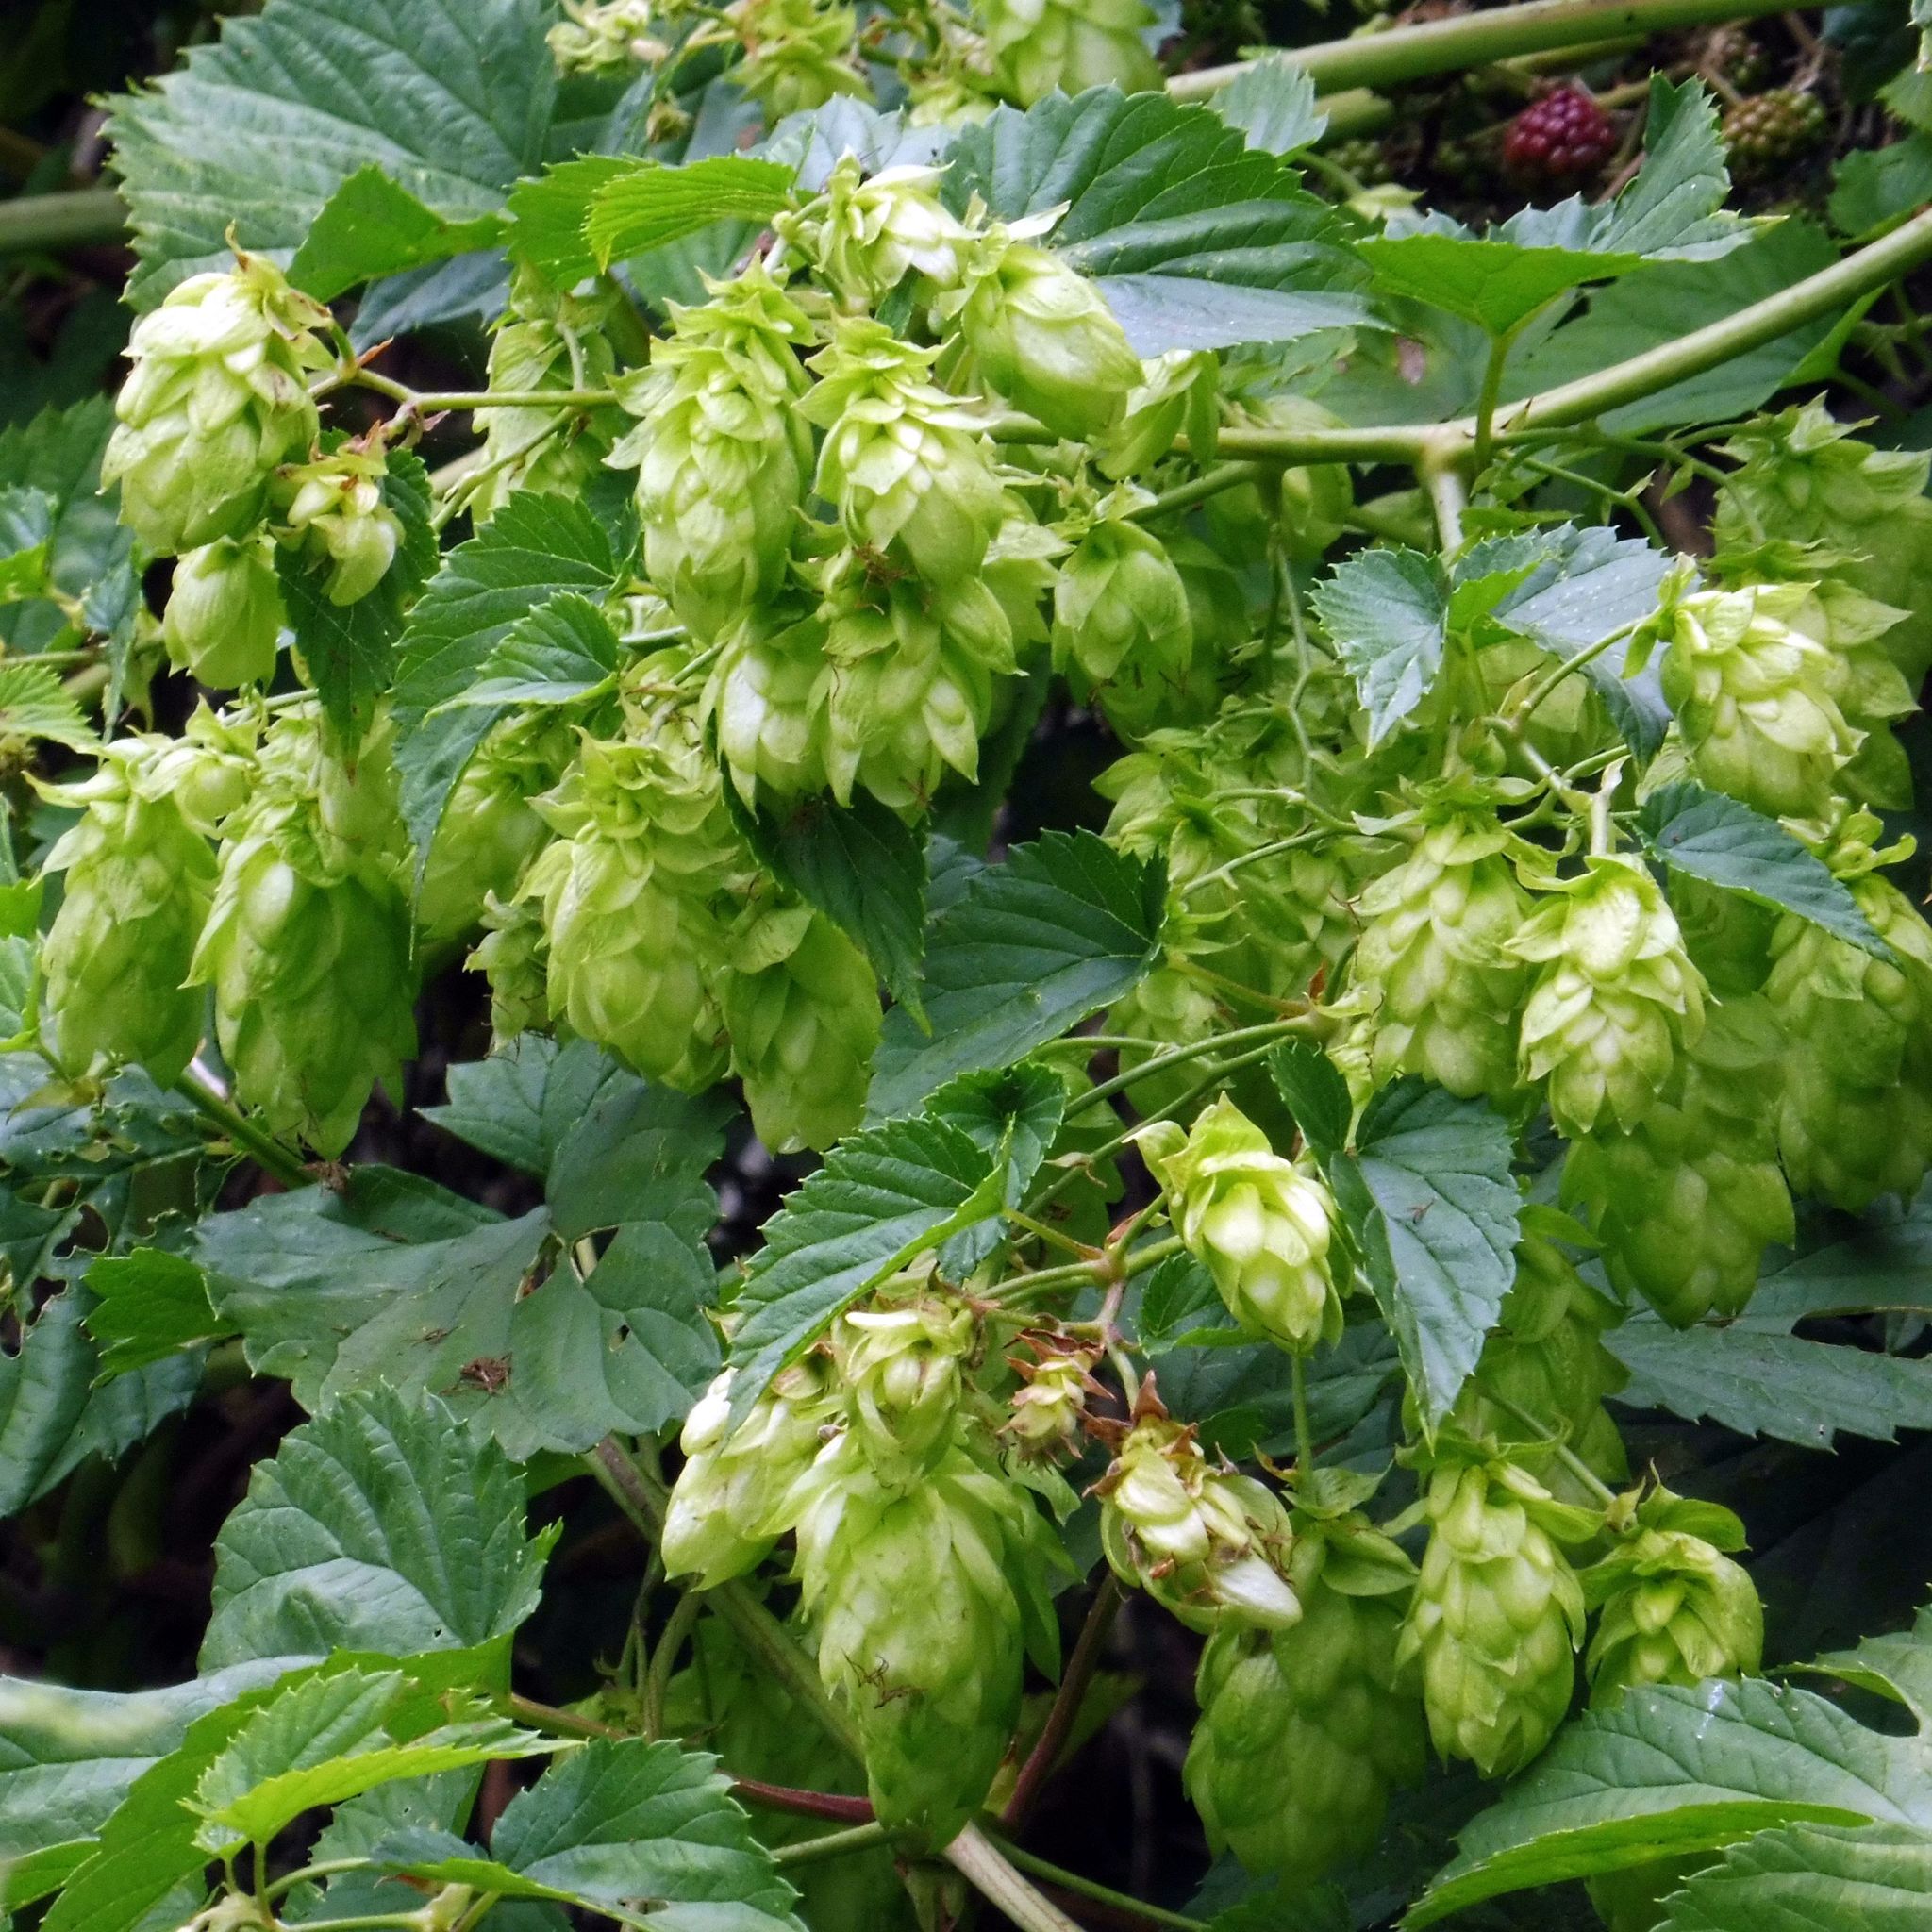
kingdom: Plantae
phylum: Tracheophyta
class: Magnoliopsida
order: Rosales
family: Cannabaceae
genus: Humulus
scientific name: Humulus lupulus
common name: Hop
